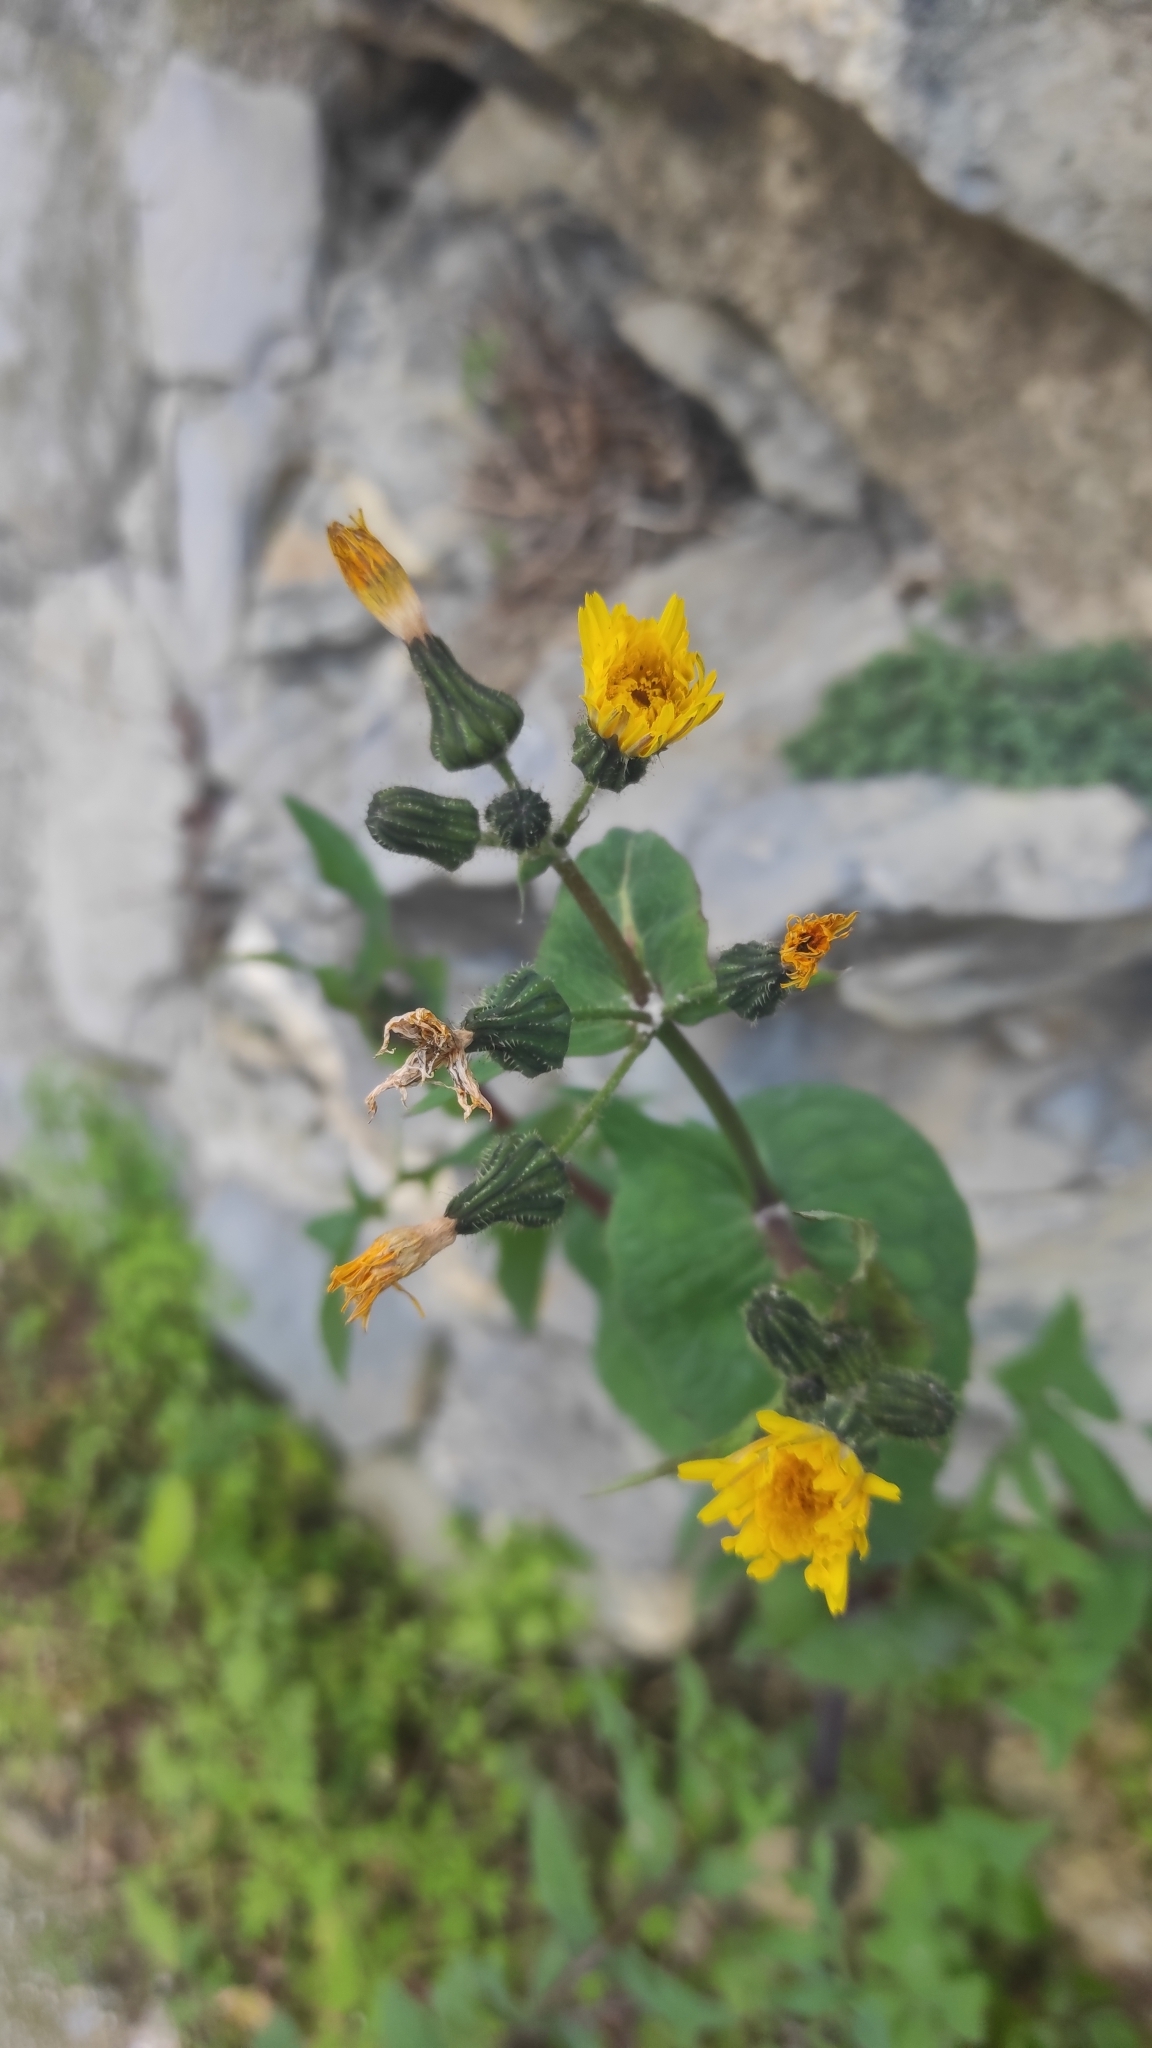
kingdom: Plantae
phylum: Tracheophyta
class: Magnoliopsida
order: Asterales
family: Asteraceae
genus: Sonchus
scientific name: Sonchus oleraceus
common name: Common sowthistle
